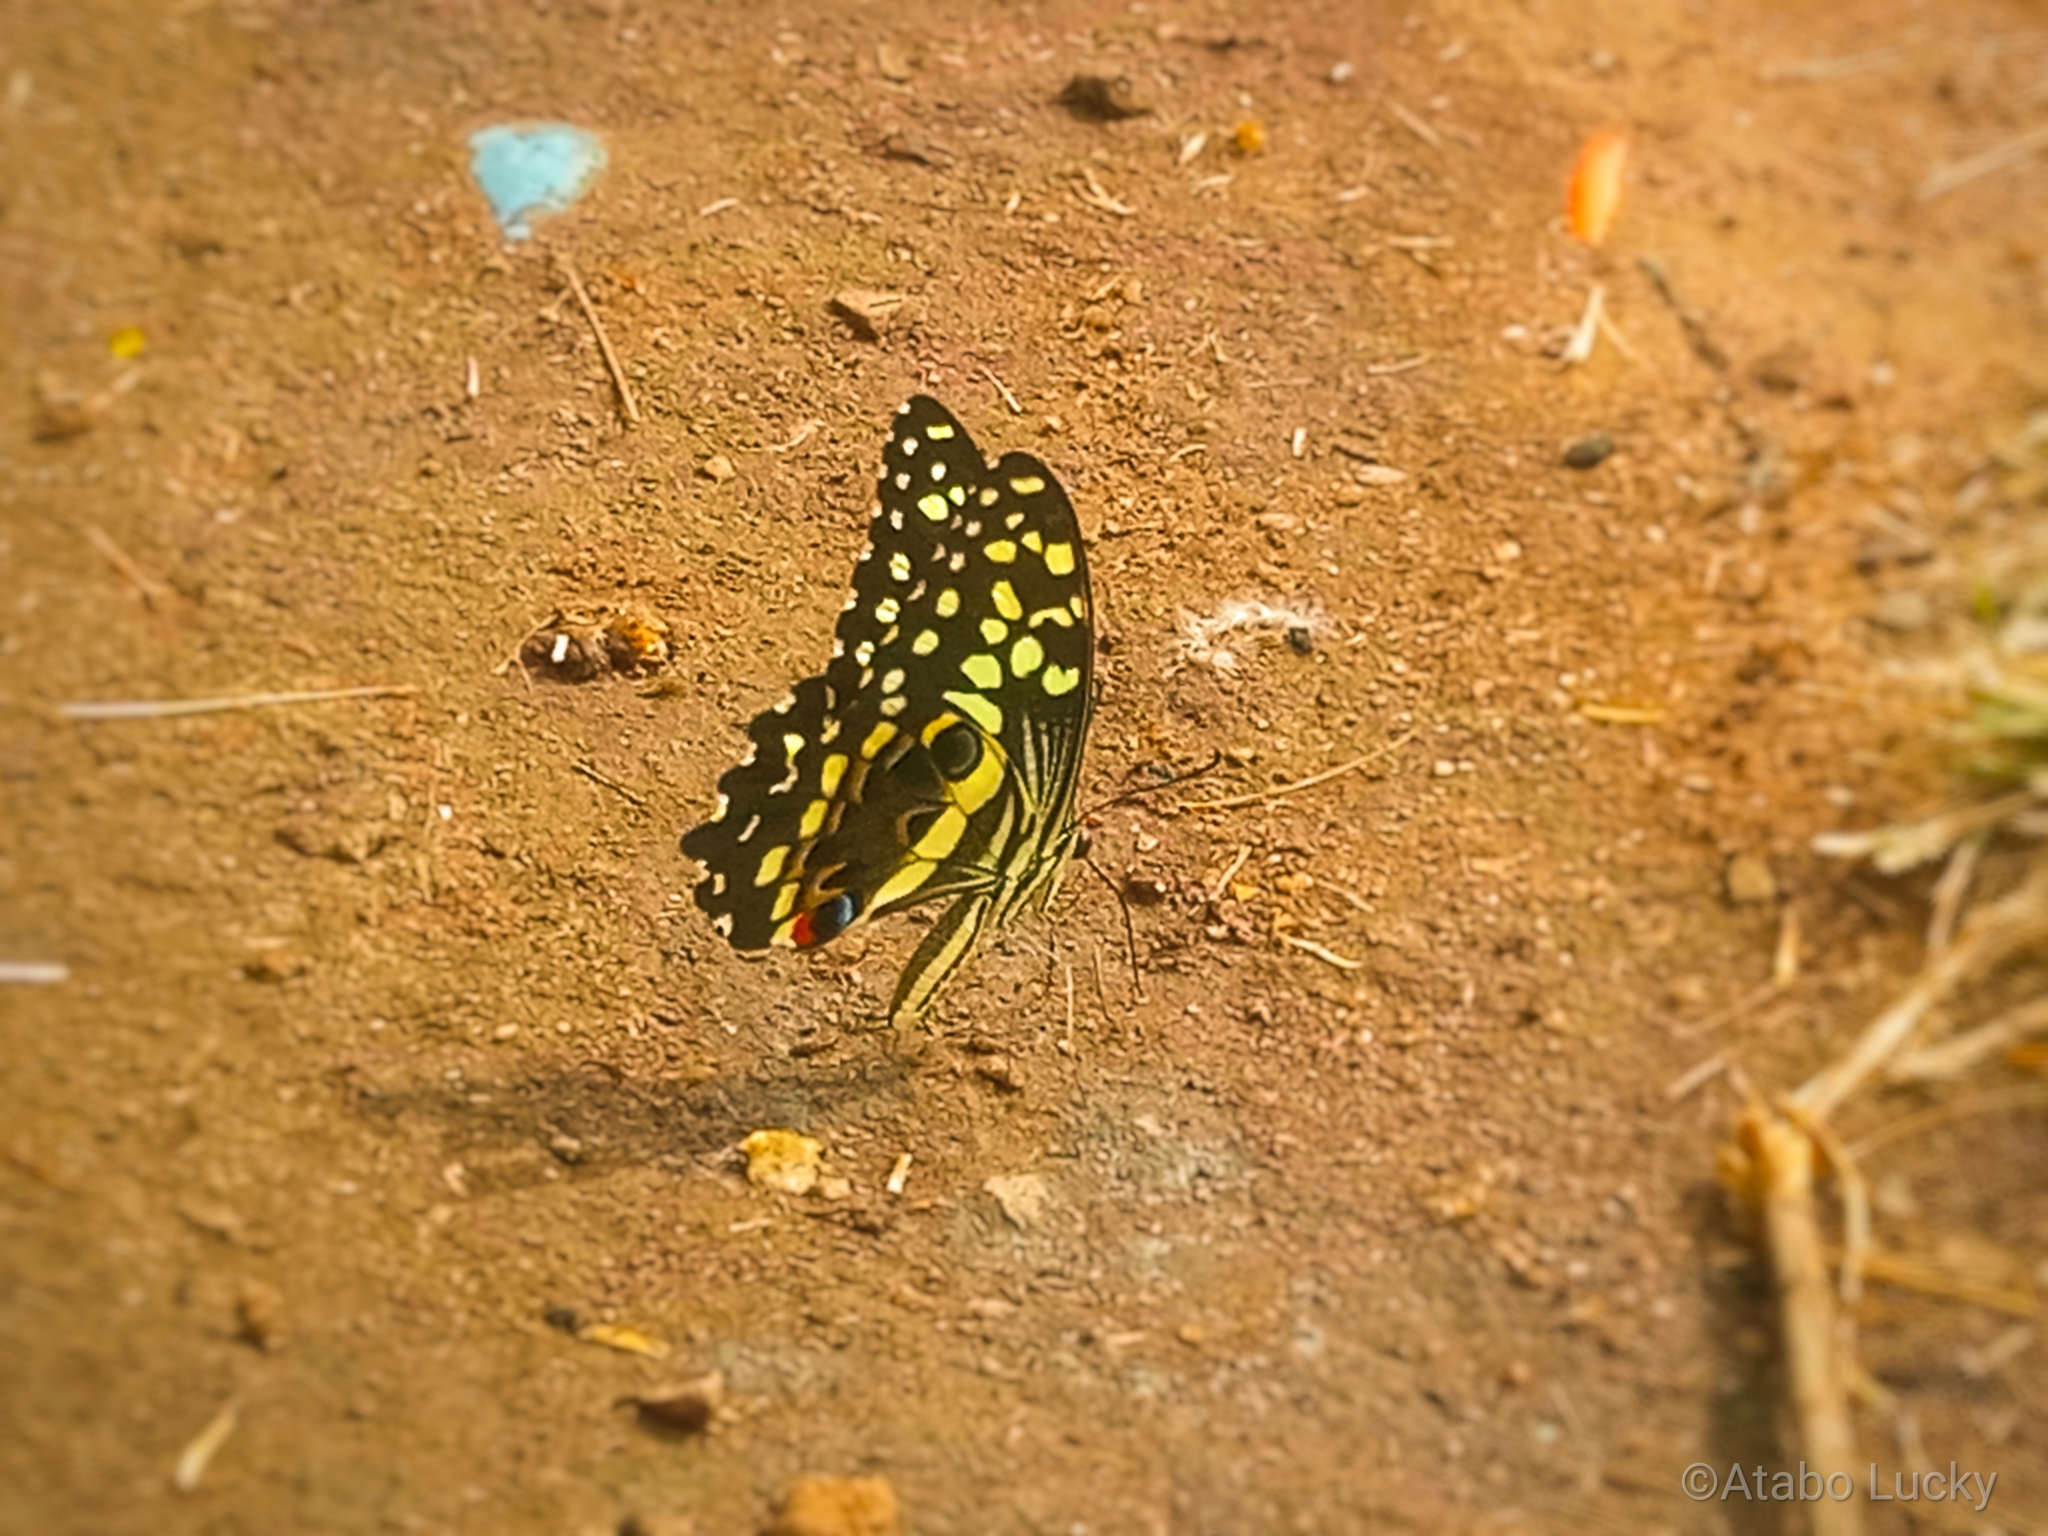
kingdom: Animalia
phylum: Arthropoda
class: Insecta
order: Lepidoptera
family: Papilionidae
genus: Papilio
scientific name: Papilio demodocus
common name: Christmas butterfly
